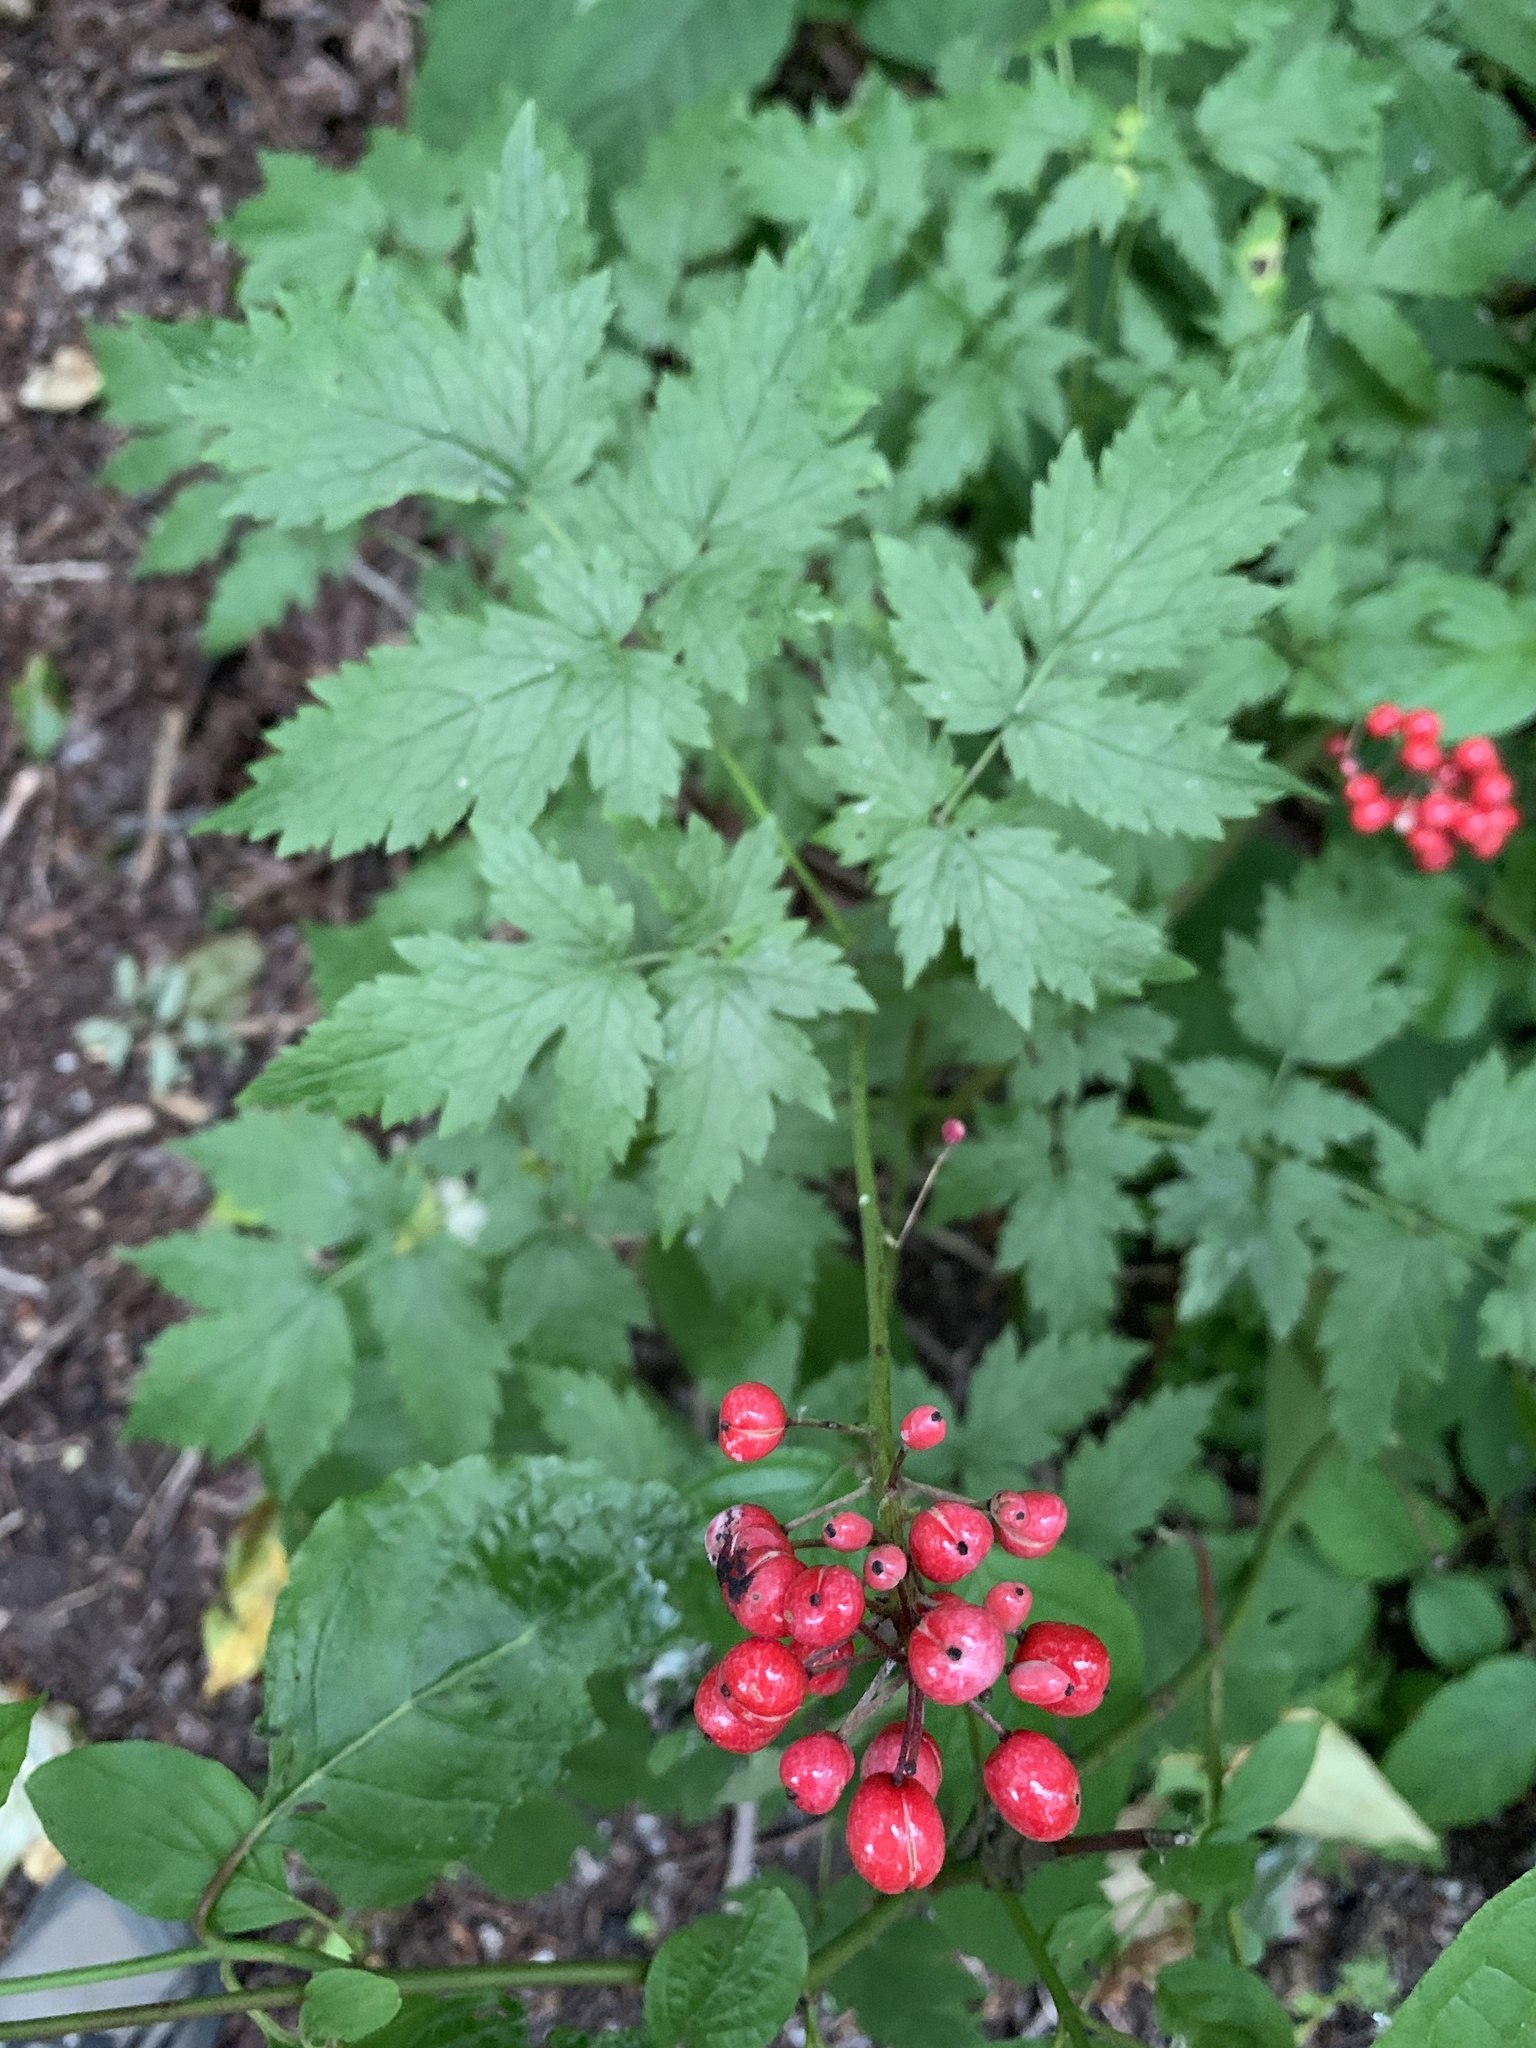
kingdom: Plantae
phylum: Tracheophyta
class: Magnoliopsida
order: Ranunculales
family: Ranunculaceae
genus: Actaea
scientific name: Actaea rubra
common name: Red baneberry
